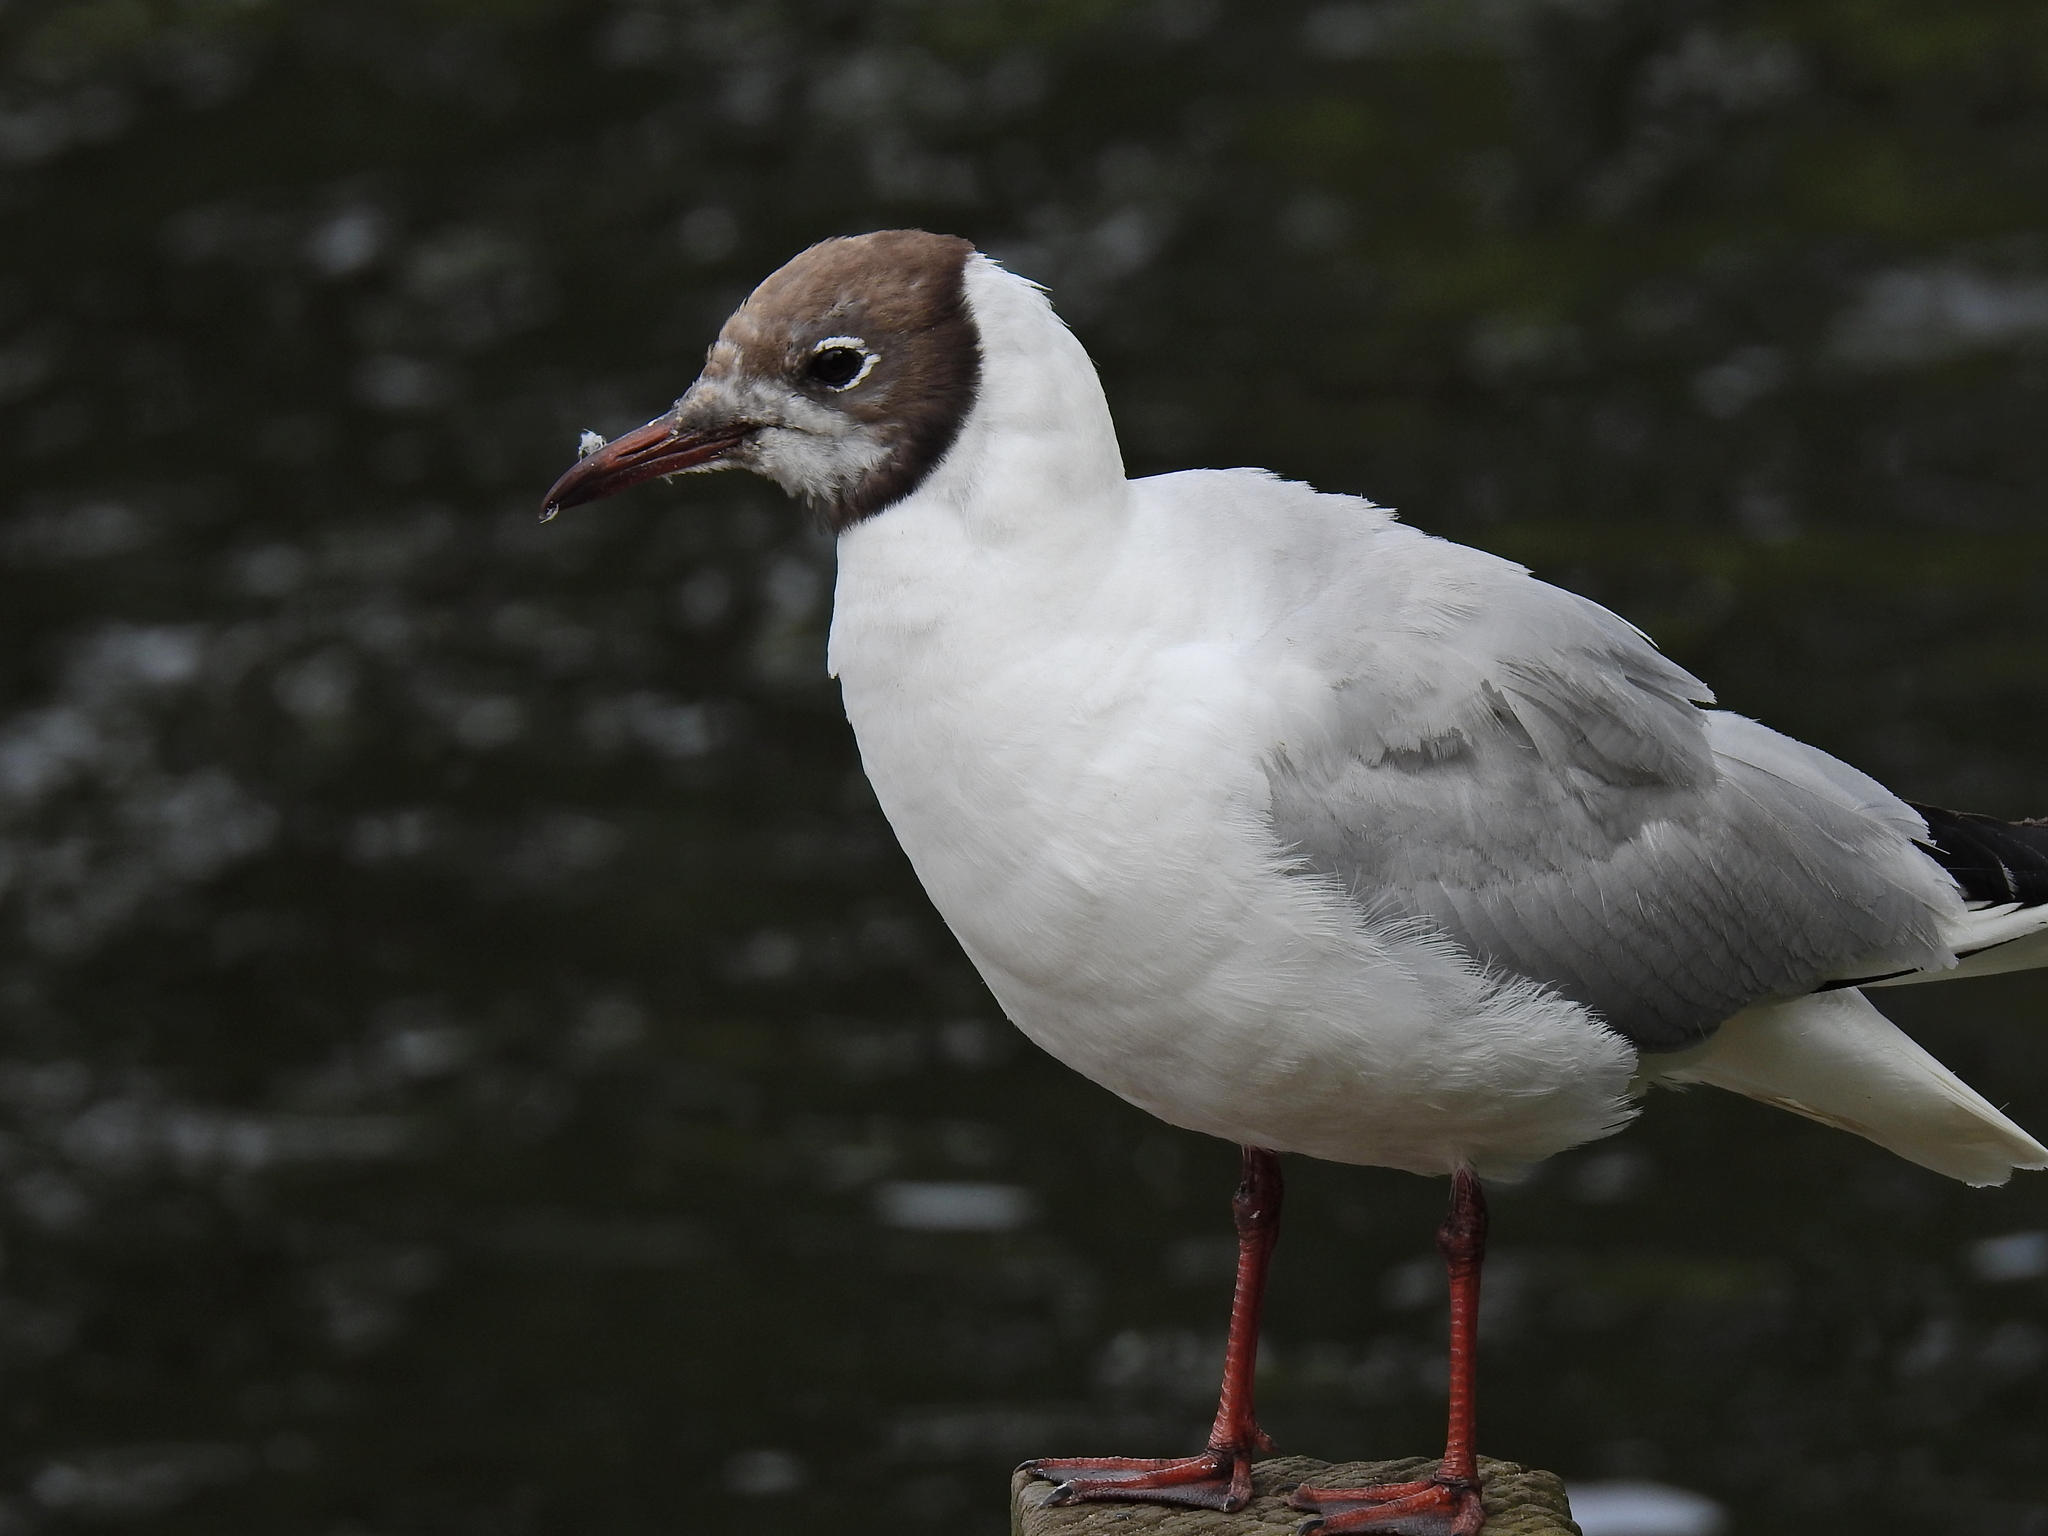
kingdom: Animalia
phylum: Chordata
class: Aves
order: Charadriiformes
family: Laridae
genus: Chroicocephalus
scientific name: Chroicocephalus ridibundus
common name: Black-headed gull
